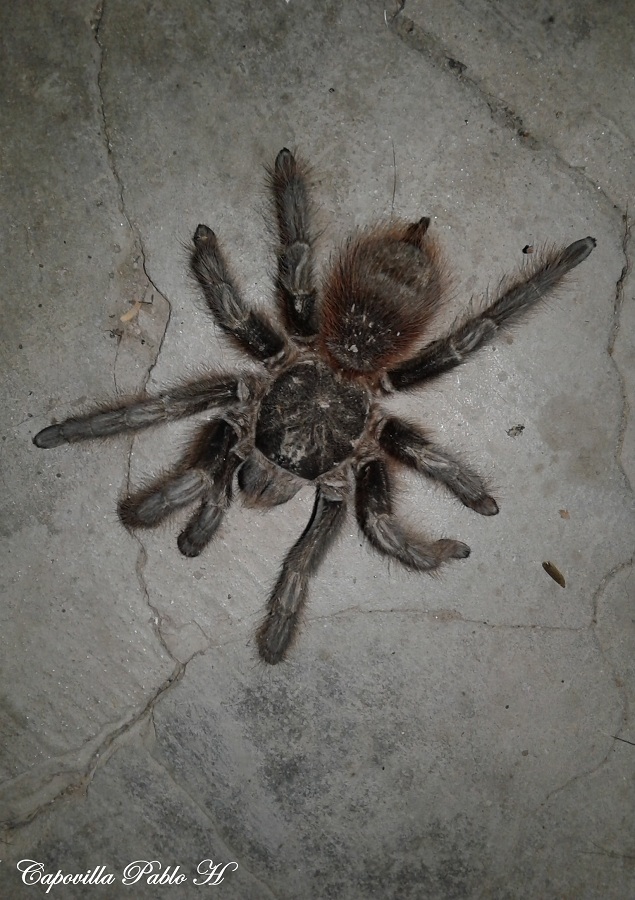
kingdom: Animalia
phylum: Arthropoda
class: Arachnida
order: Araneae
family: Theraphosidae
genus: Acanthoscurria
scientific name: Acanthoscurria chacoana
